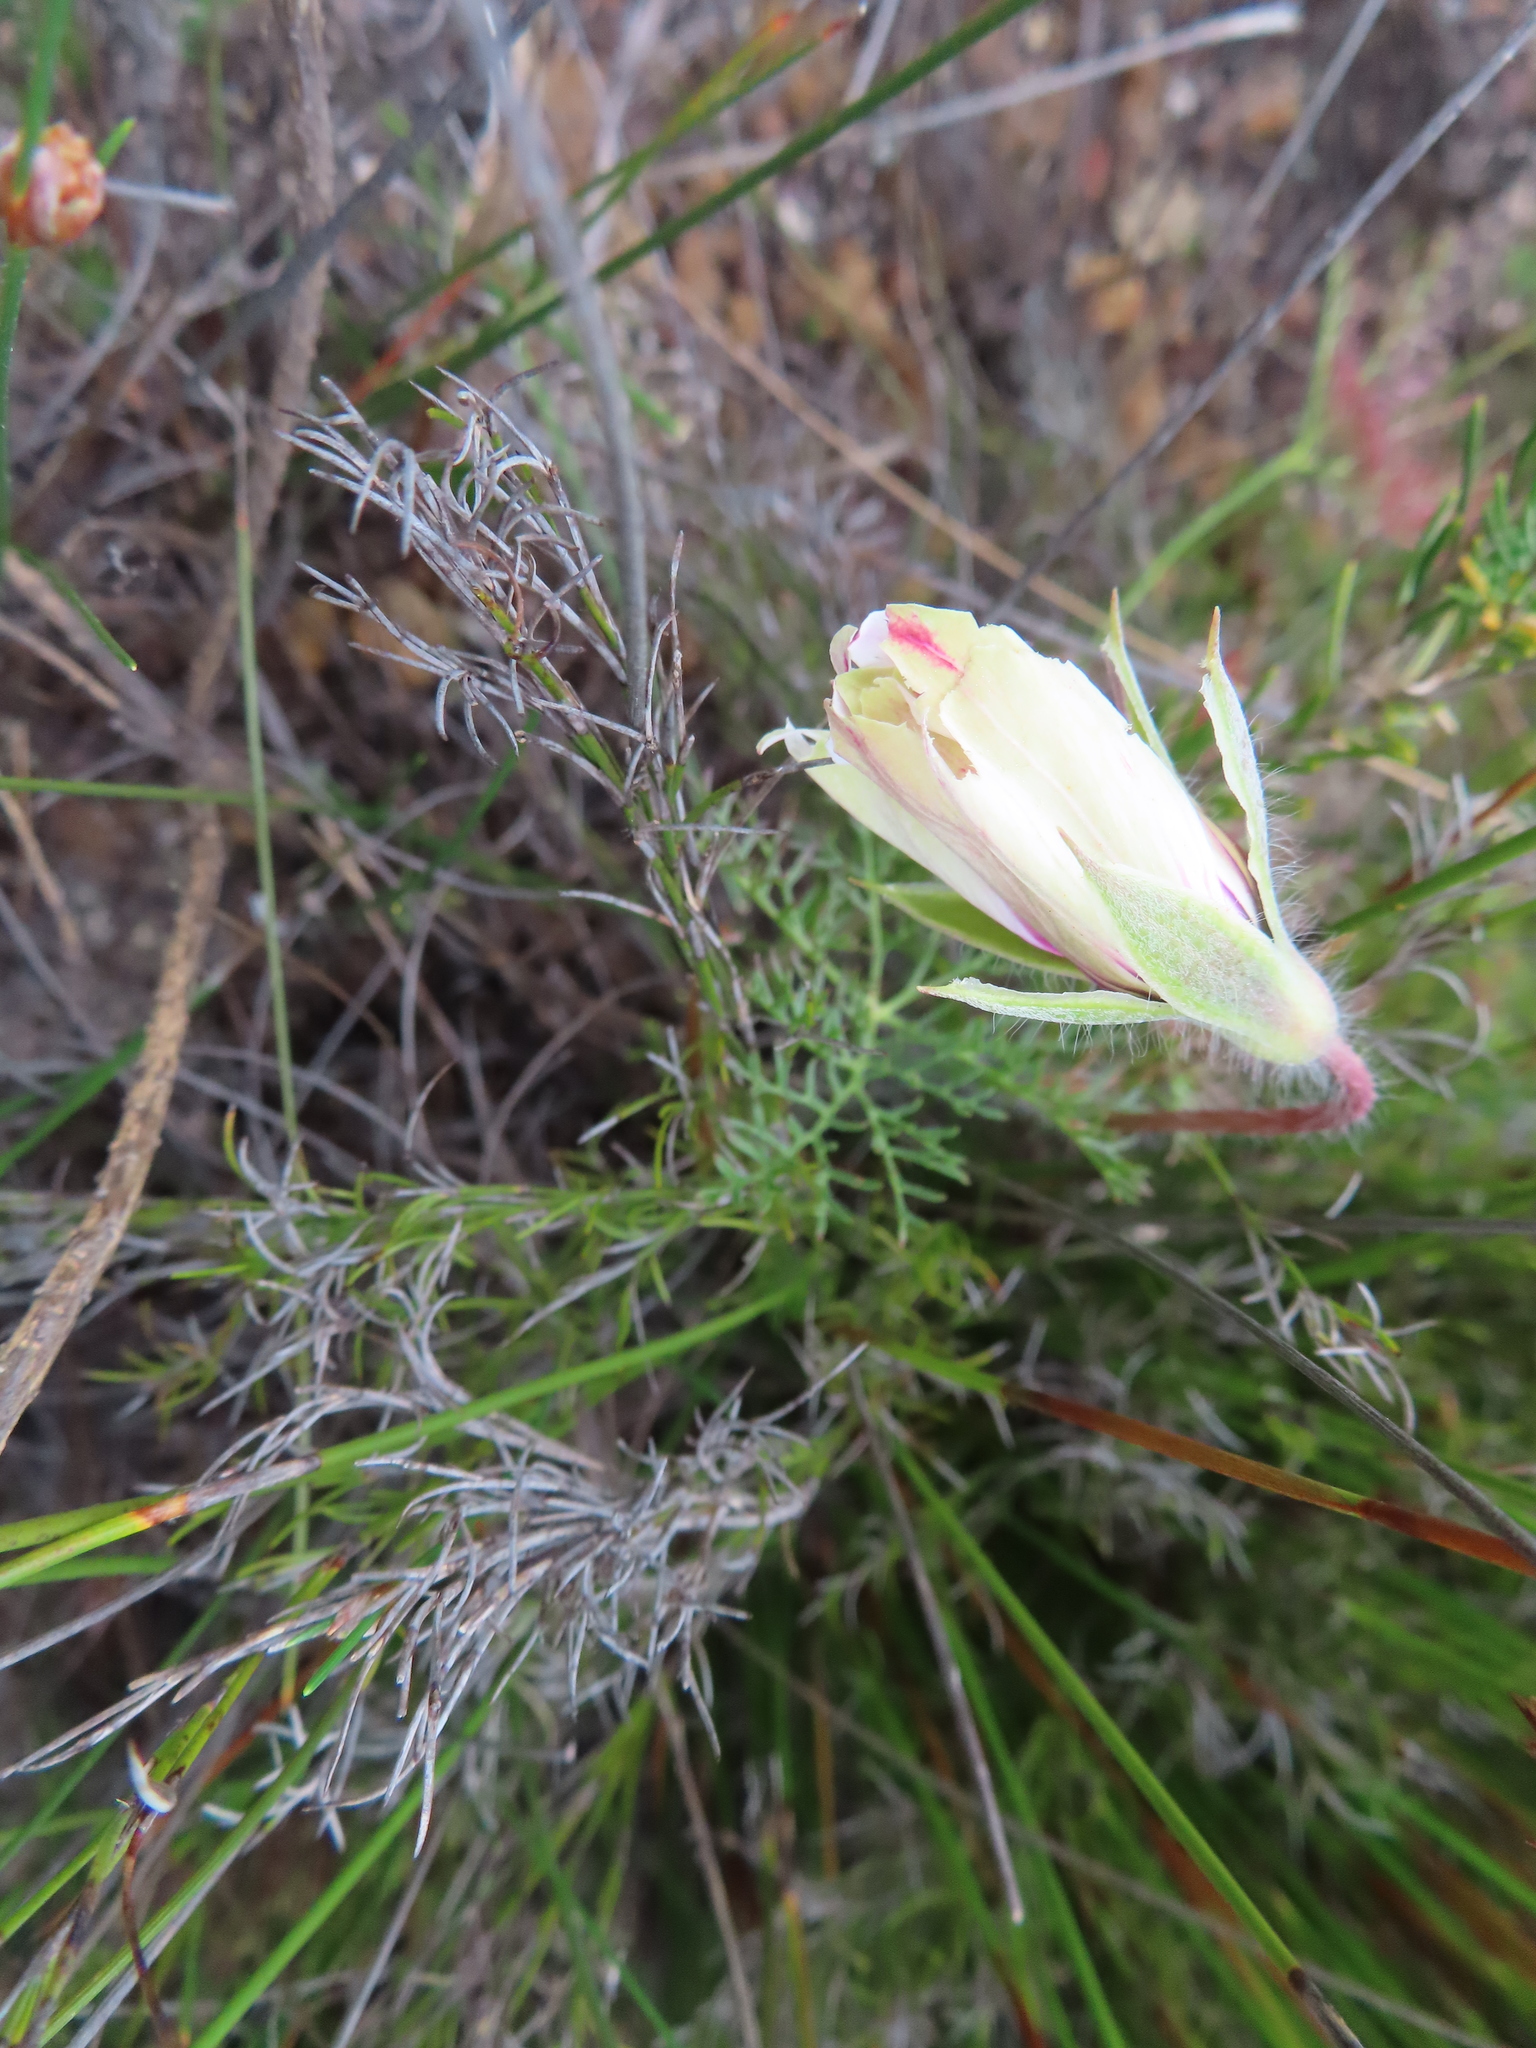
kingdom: Plantae
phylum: Tracheophyta
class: Magnoliopsida
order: Geraniales
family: Geraniaceae
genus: Monsonia
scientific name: Monsonia speciosa
